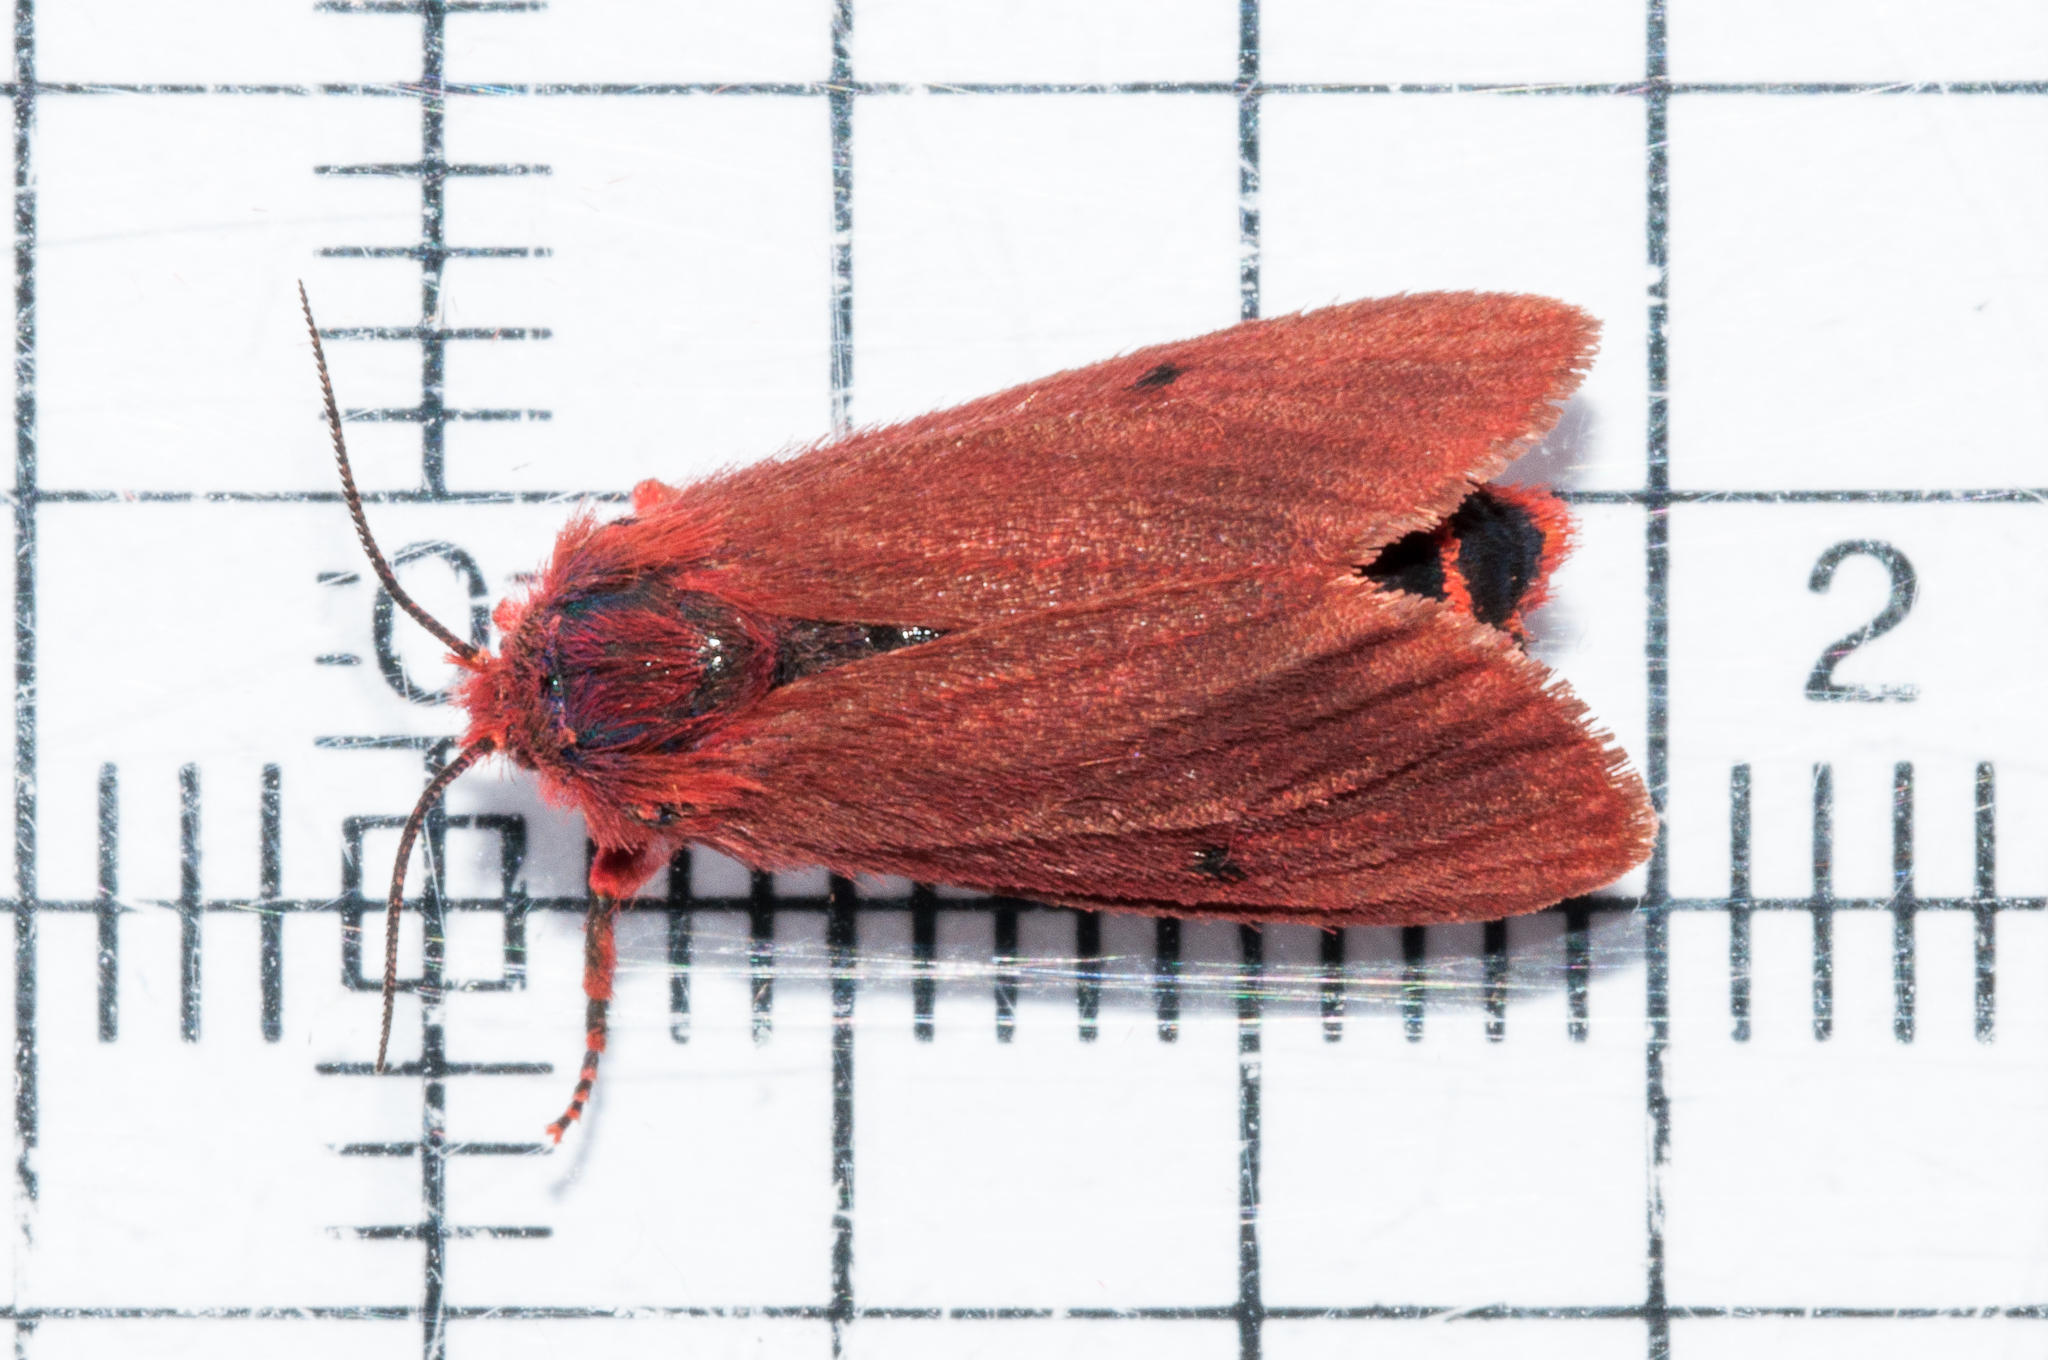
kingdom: Animalia
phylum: Arthropoda
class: Insecta
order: Lepidoptera
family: Erebidae
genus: Phragmatobia
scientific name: Phragmatobia parvula
